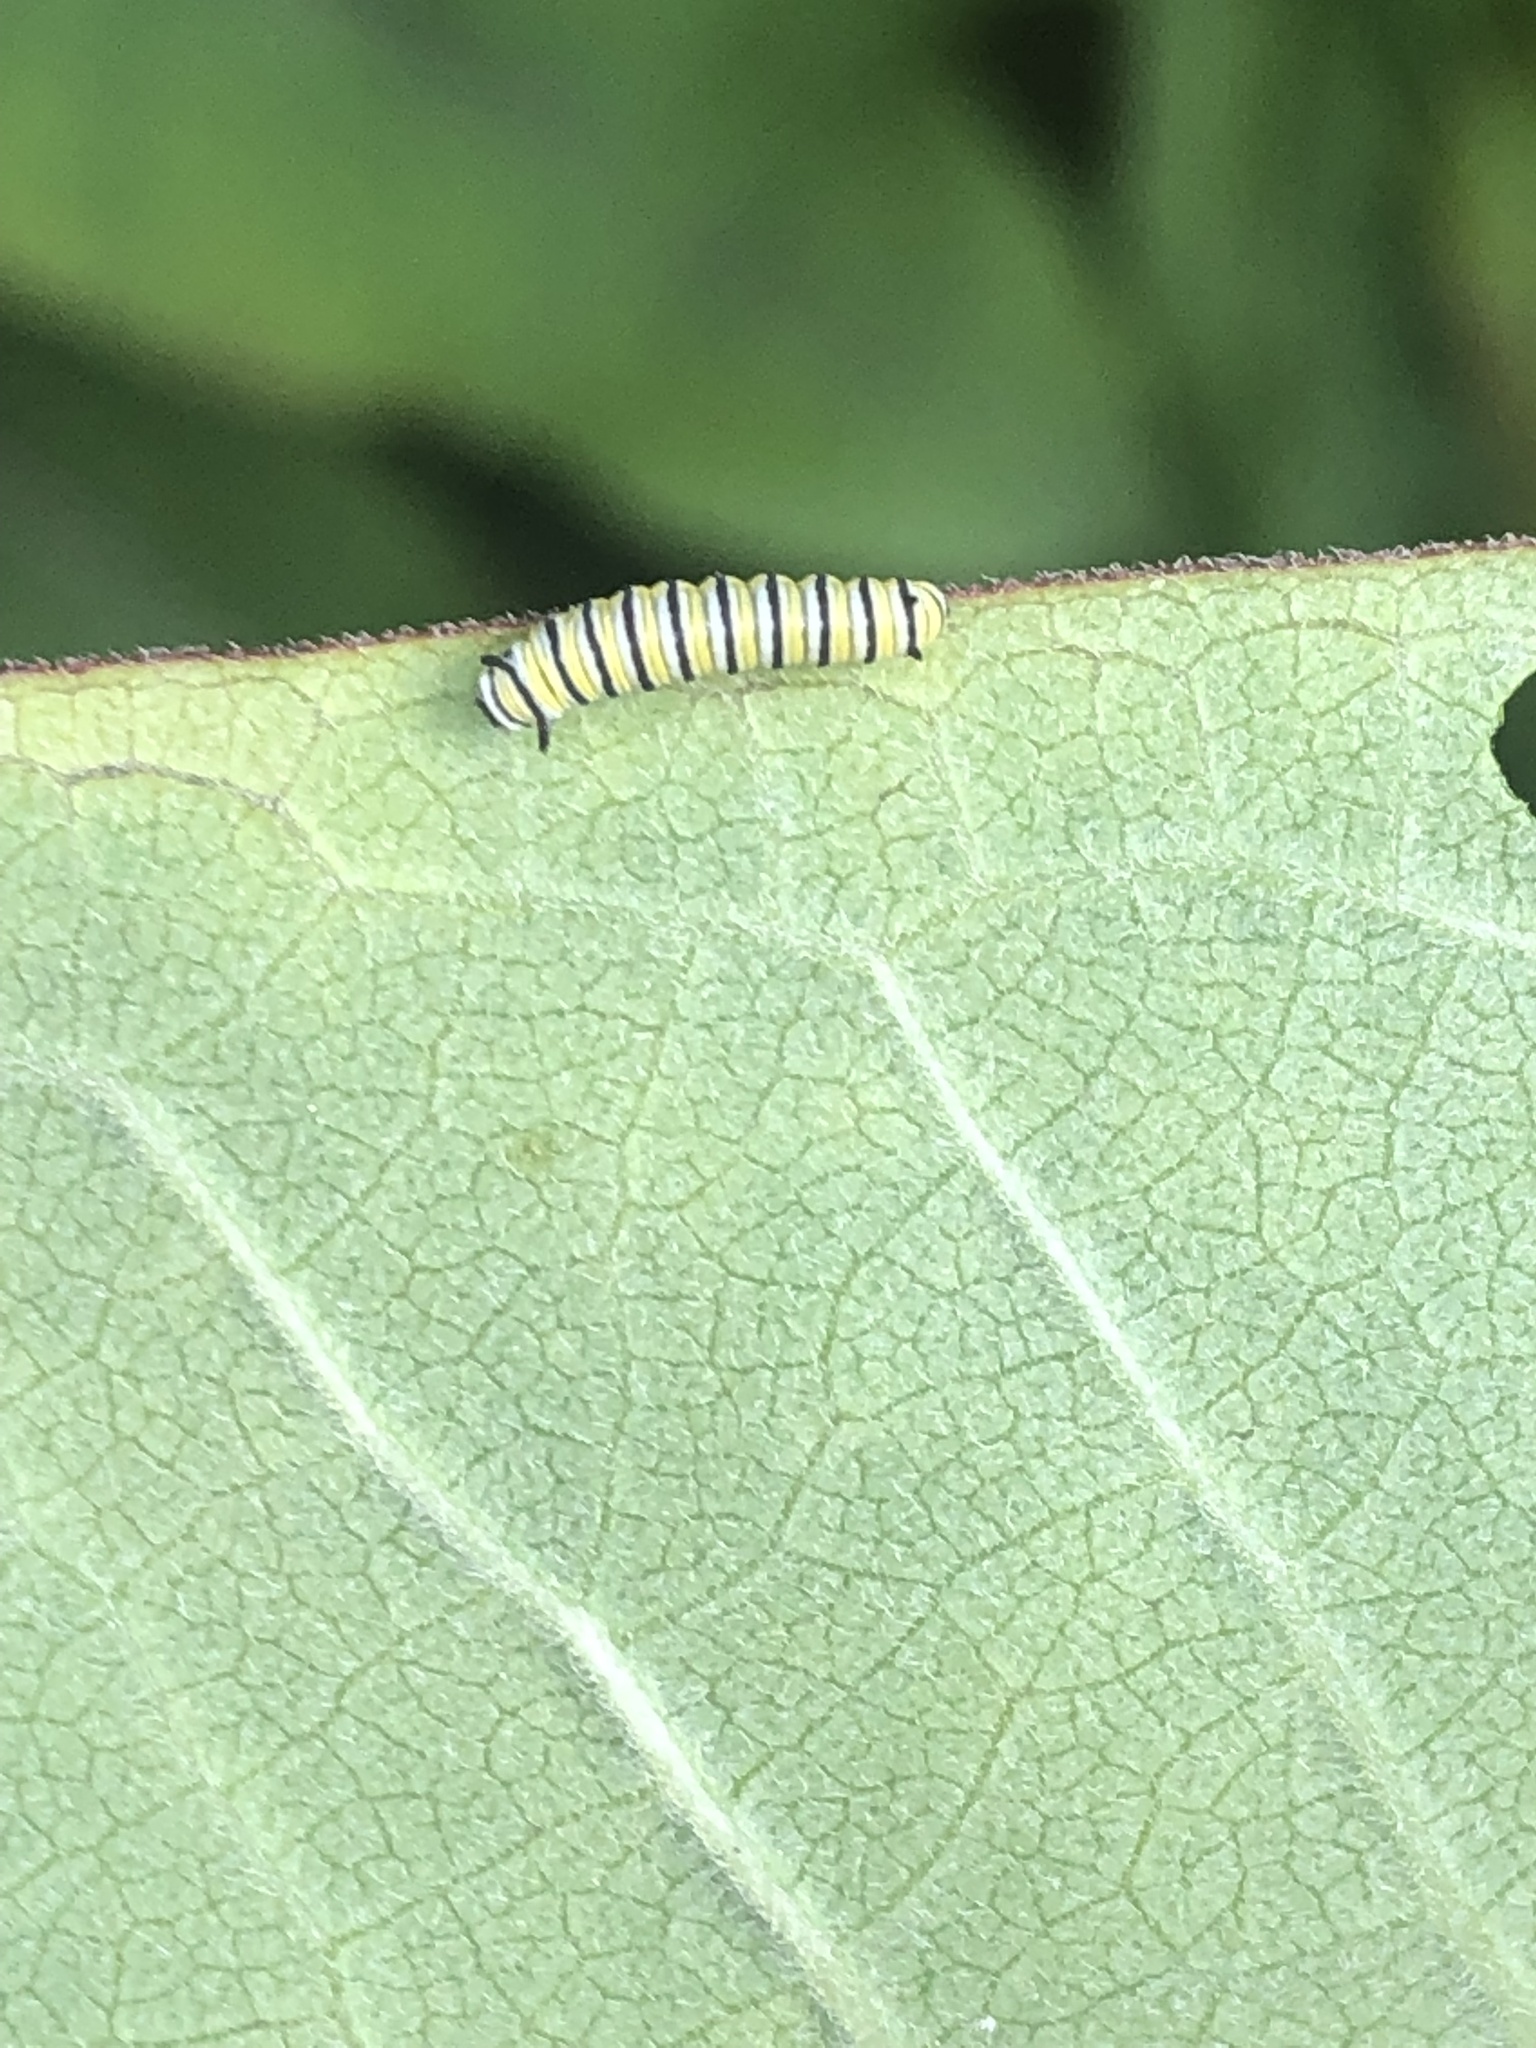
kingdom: Animalia
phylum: Arthropoda
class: Insecta
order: Lepidoptera
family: Nymphalidae
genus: Danaus
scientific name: Danaus plexippus
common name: Monarch
